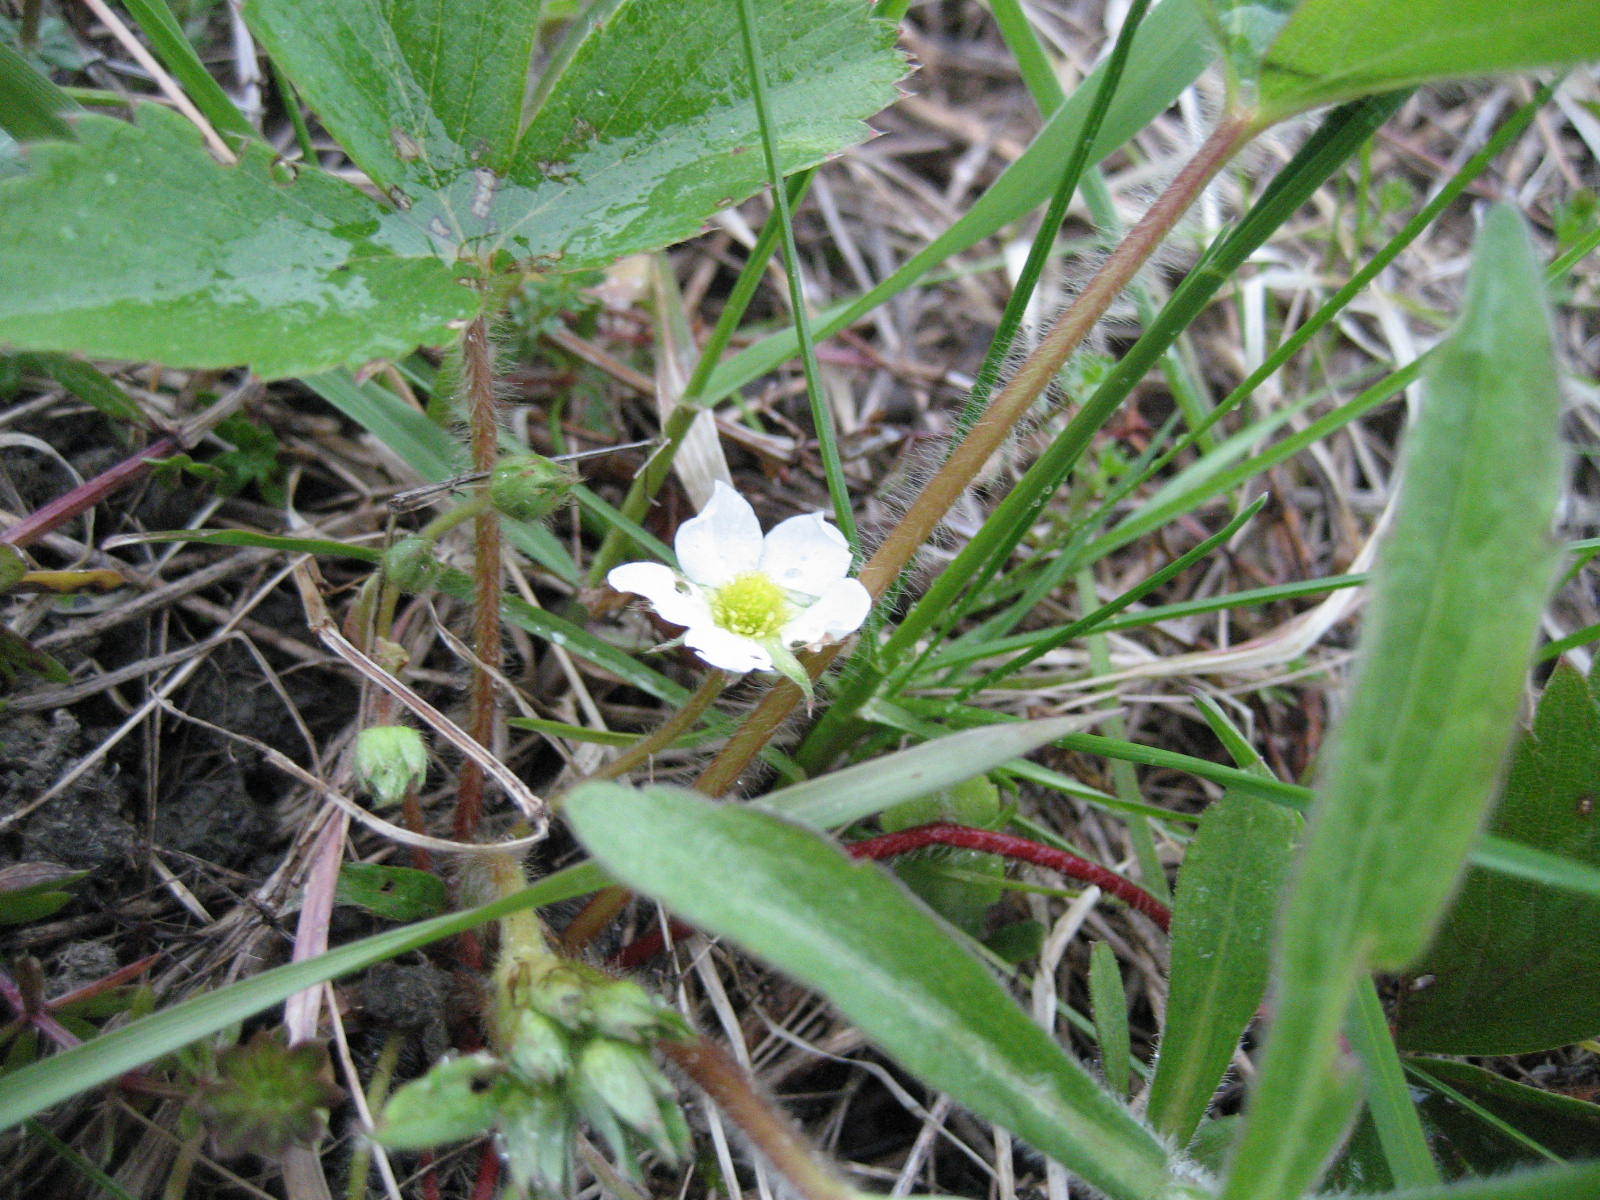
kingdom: Plantae
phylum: Tracheophyta
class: Magnoliopsida
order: Rosales
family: Rosaceae
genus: Fragaria
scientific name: Fragaria virginiana
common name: Thickleaved wild strawberry
